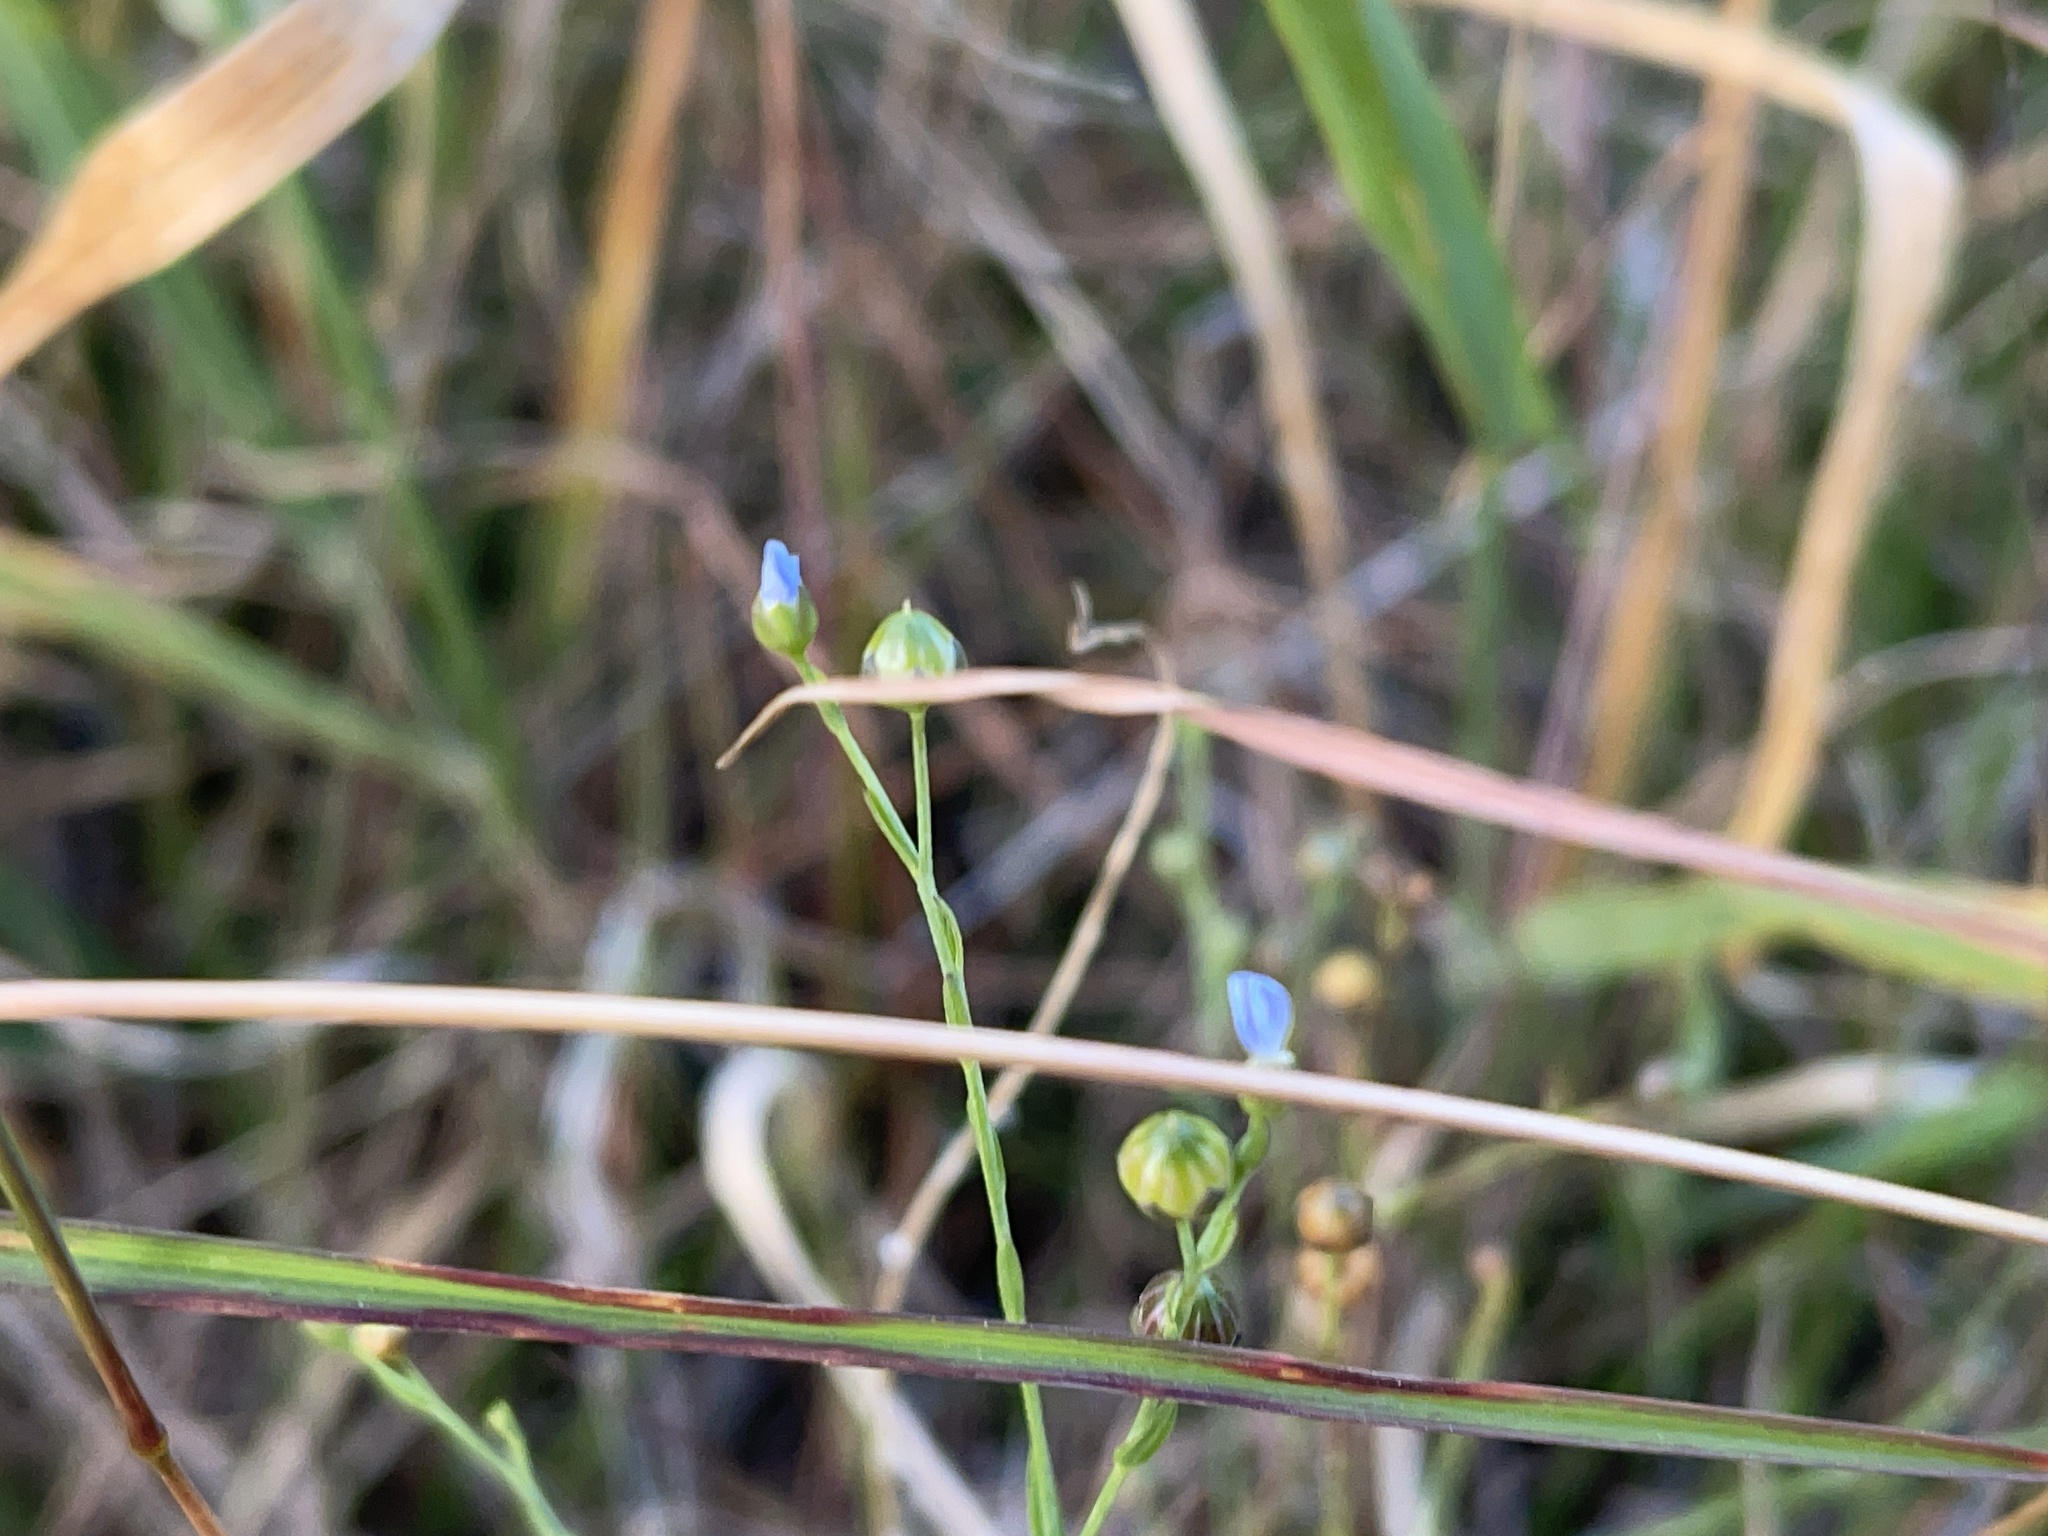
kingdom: Plantae
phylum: Tracheophyta
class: Magnoliopsida
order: Malpighiales
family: Linaceae
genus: Linum
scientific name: Linum marginale
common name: Wild flax
